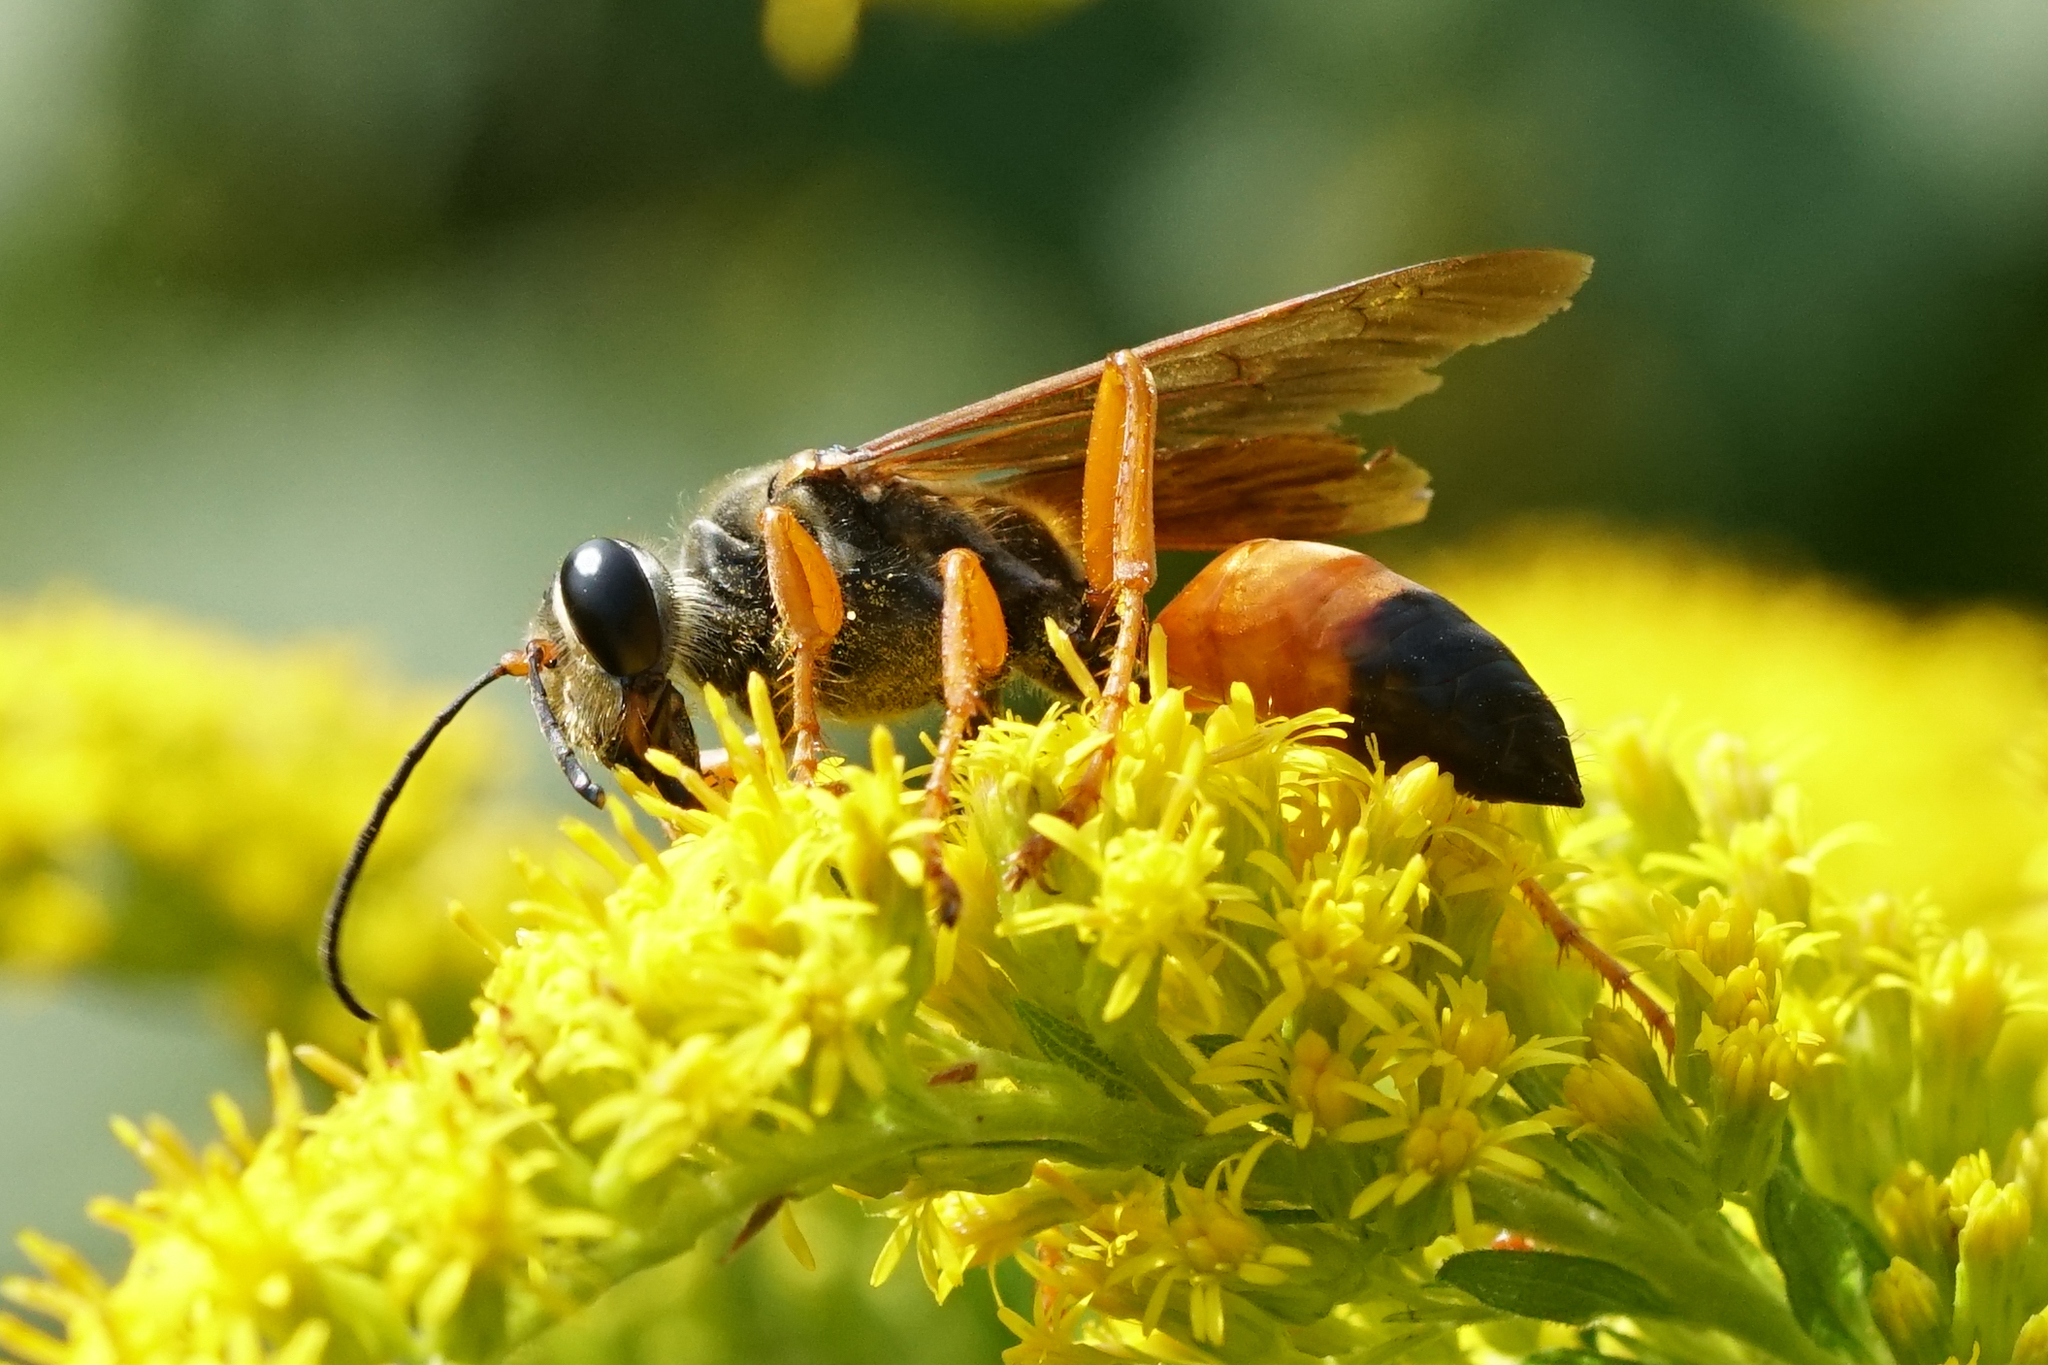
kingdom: Animalia
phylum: Arthropoda
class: Insecta
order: Hymenoptera
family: Sphecidae
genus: Sphex
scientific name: Sphex ichneumoneus
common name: Great golden digger wasp
